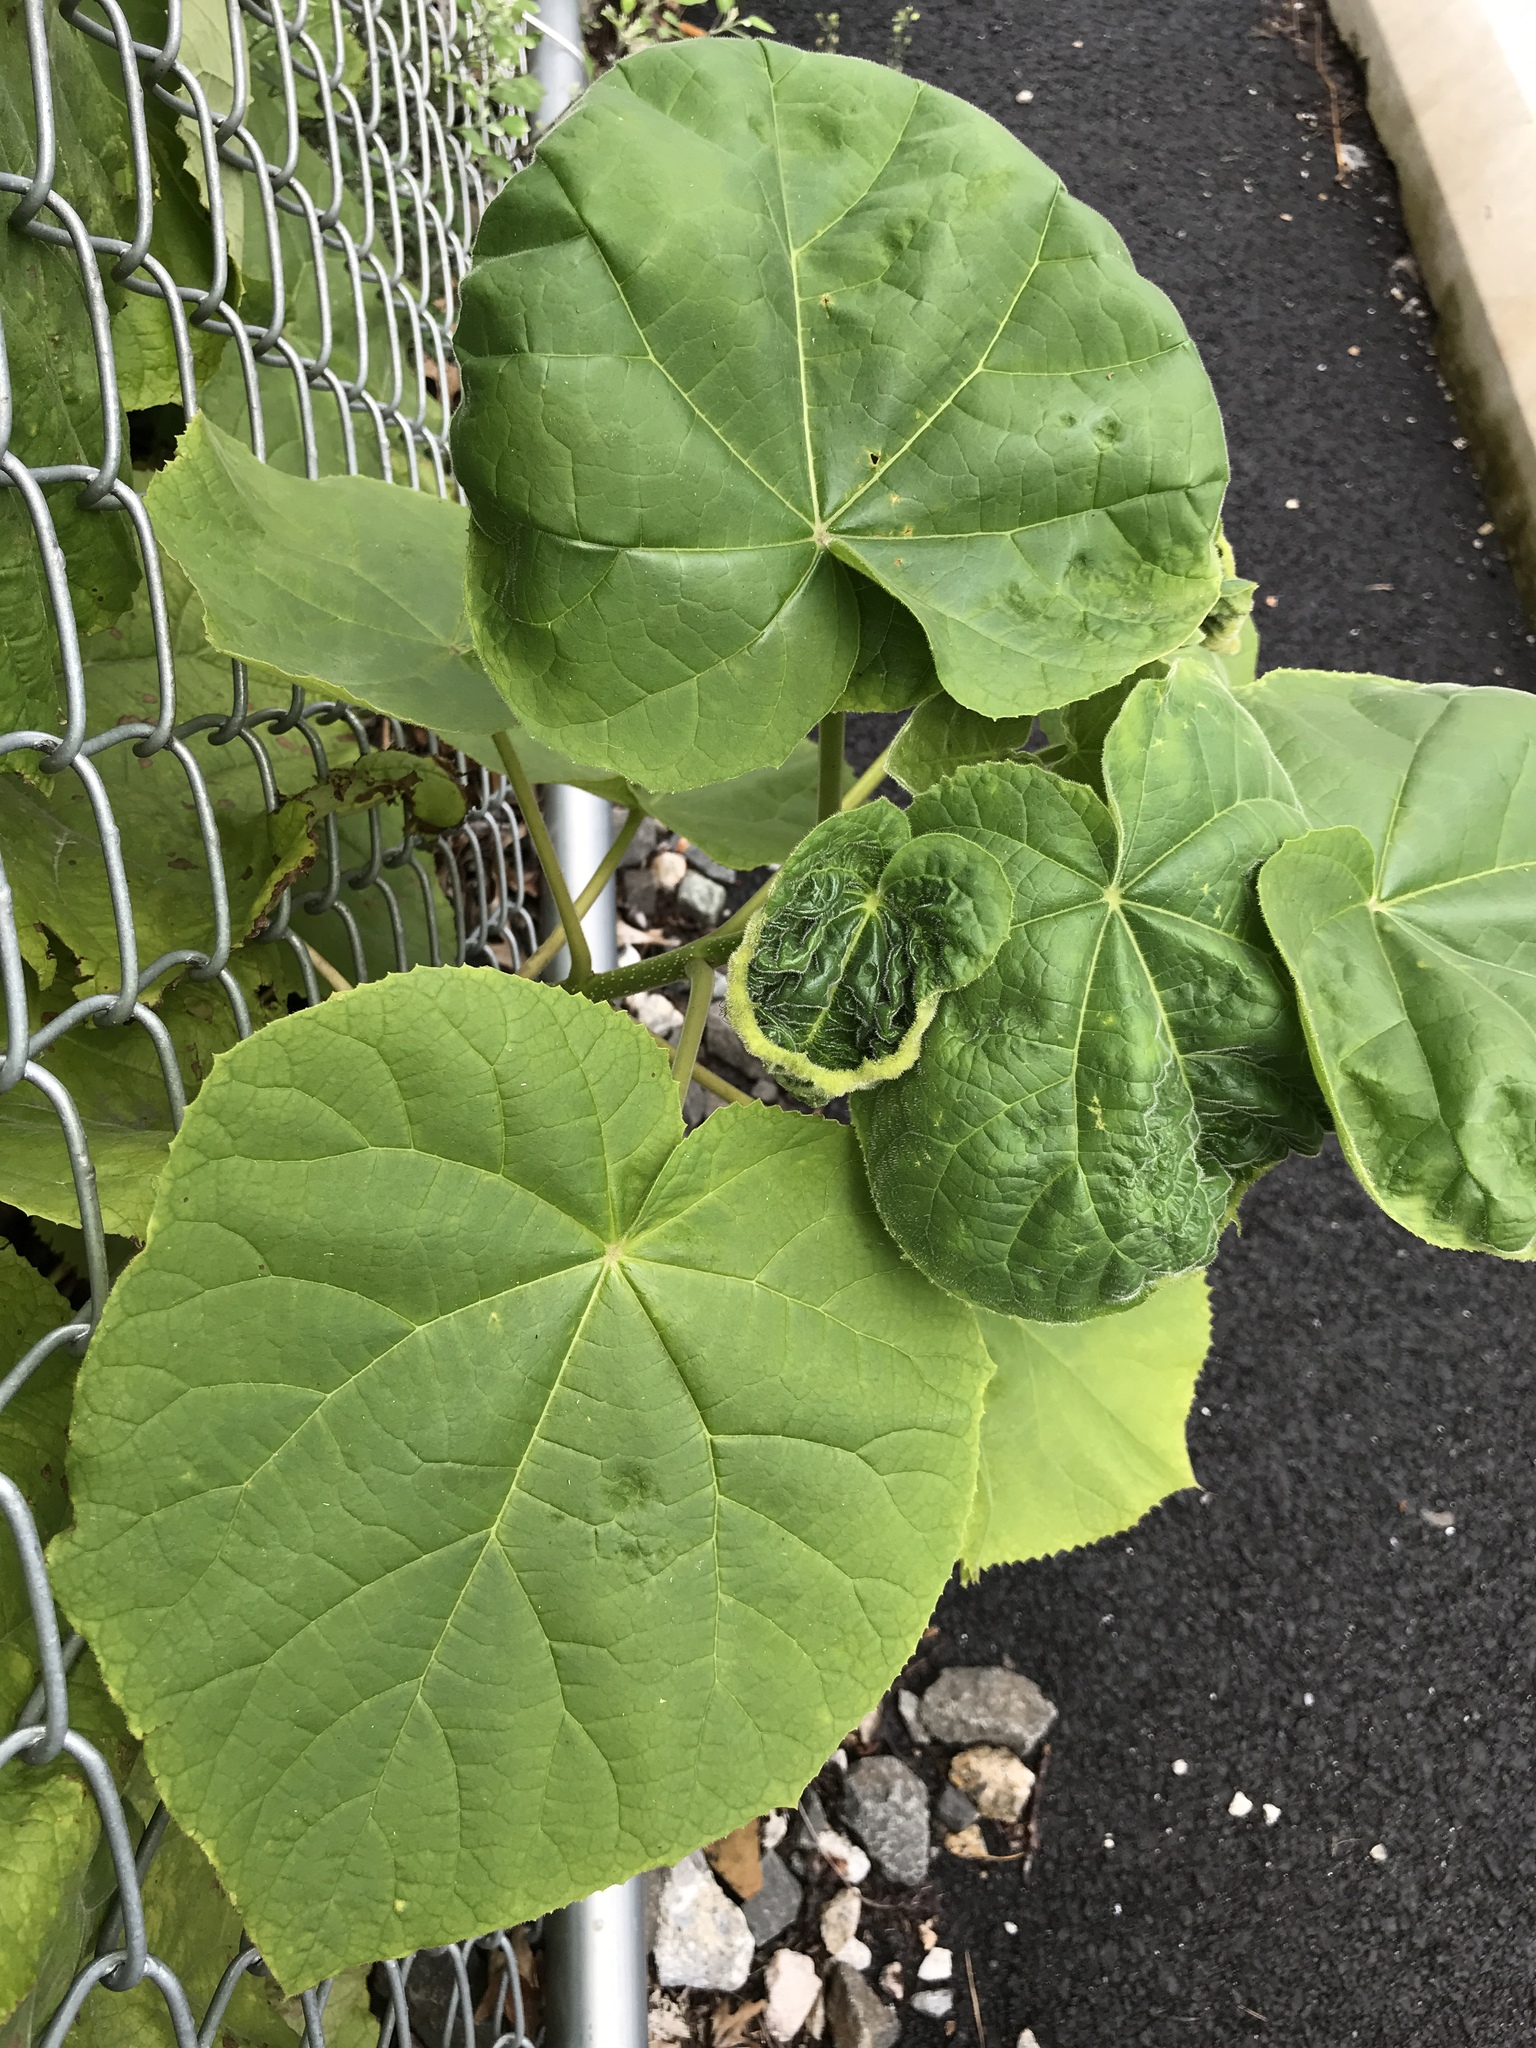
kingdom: Plantae
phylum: Tracheophyta
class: Magnoliopsida
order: Lamiales
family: Paulowniaceae
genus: Paulownia
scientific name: Paulownia tomentosa
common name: Foxglove-tree
